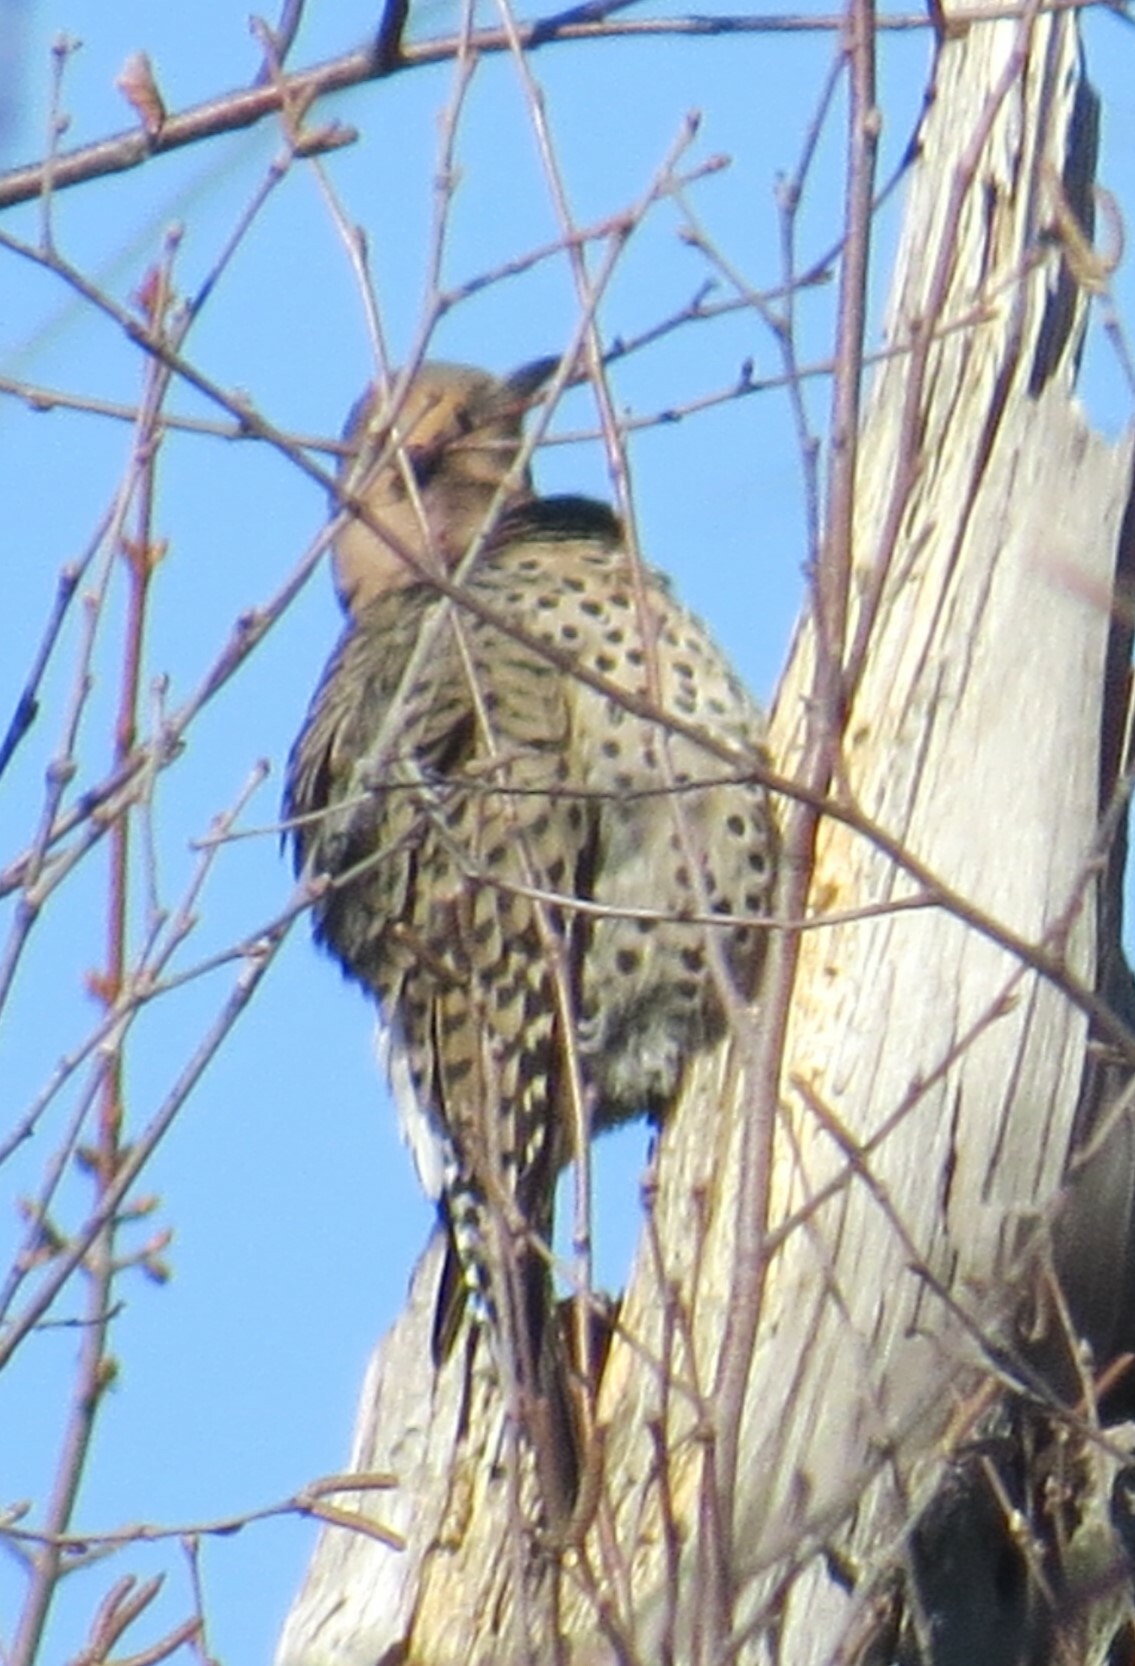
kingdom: Animalia
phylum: Chordata
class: Aves
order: Piciformes
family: Picidae
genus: Colaptes
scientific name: Colaptes auratus
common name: Northern flicker
